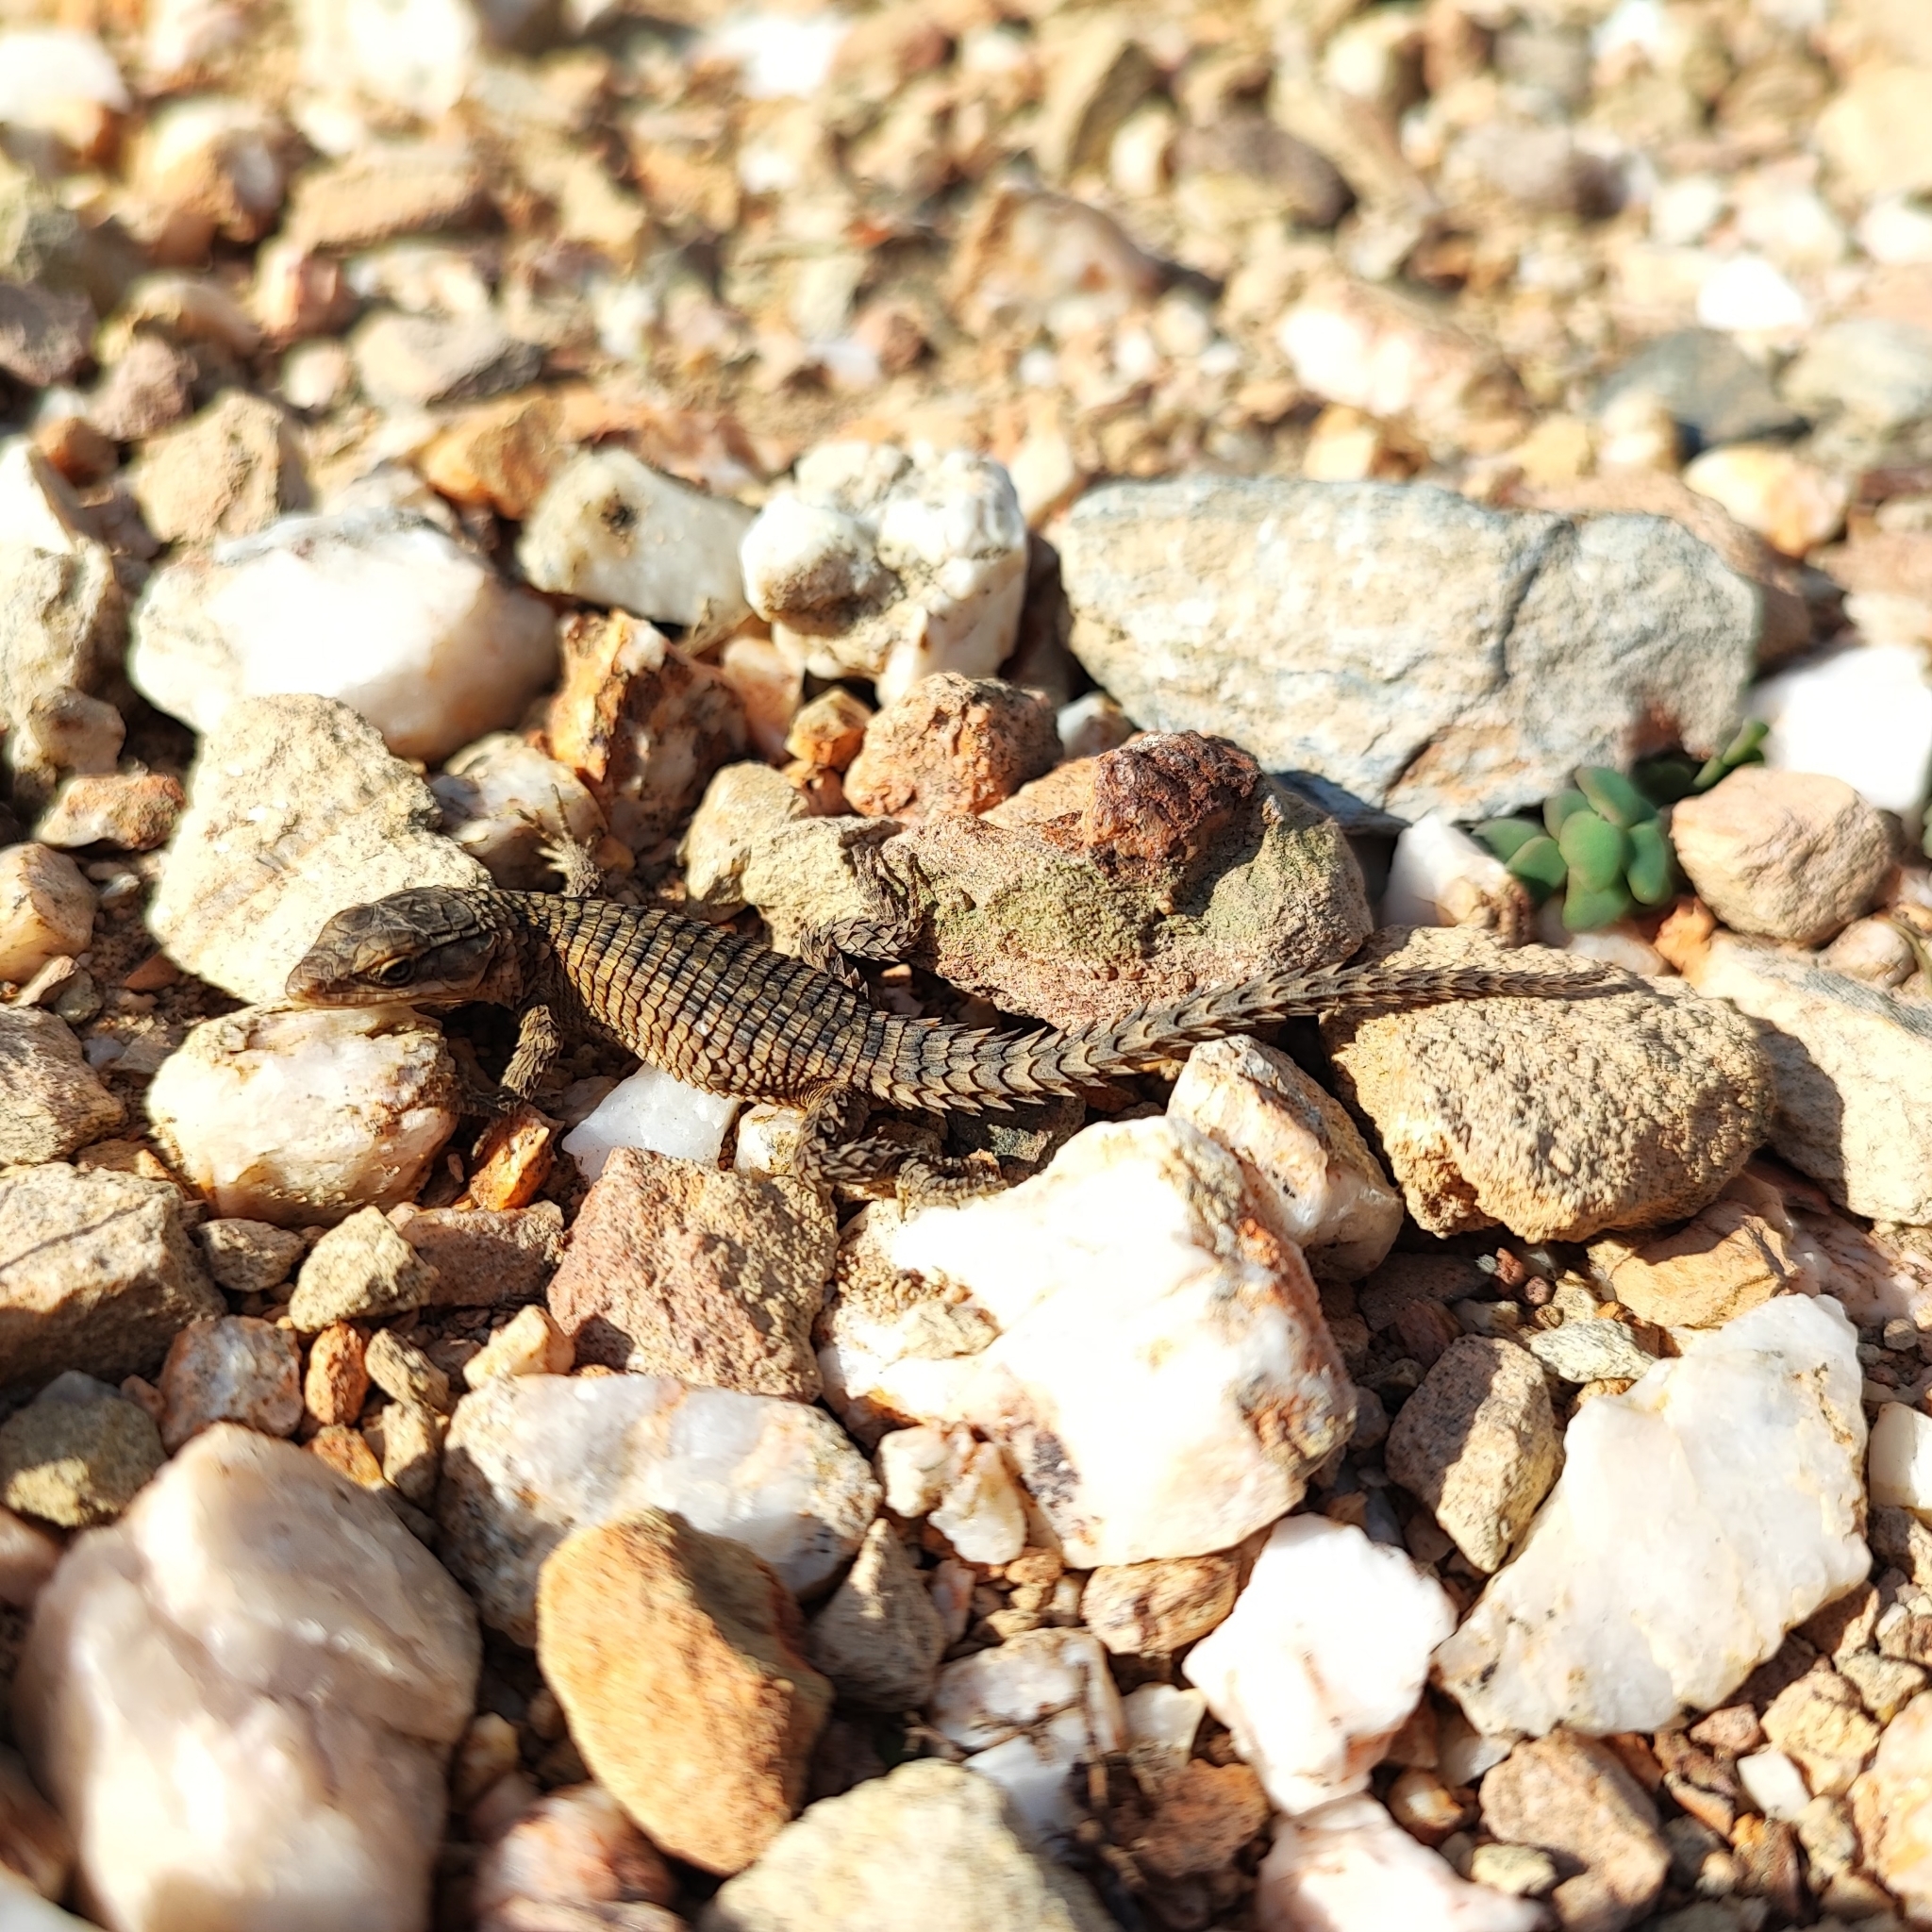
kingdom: Animalia
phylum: Chordata
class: Squamata
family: Cordylidae
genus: Cordylus
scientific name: Cordylus cordylus
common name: Cape girdled lizard
